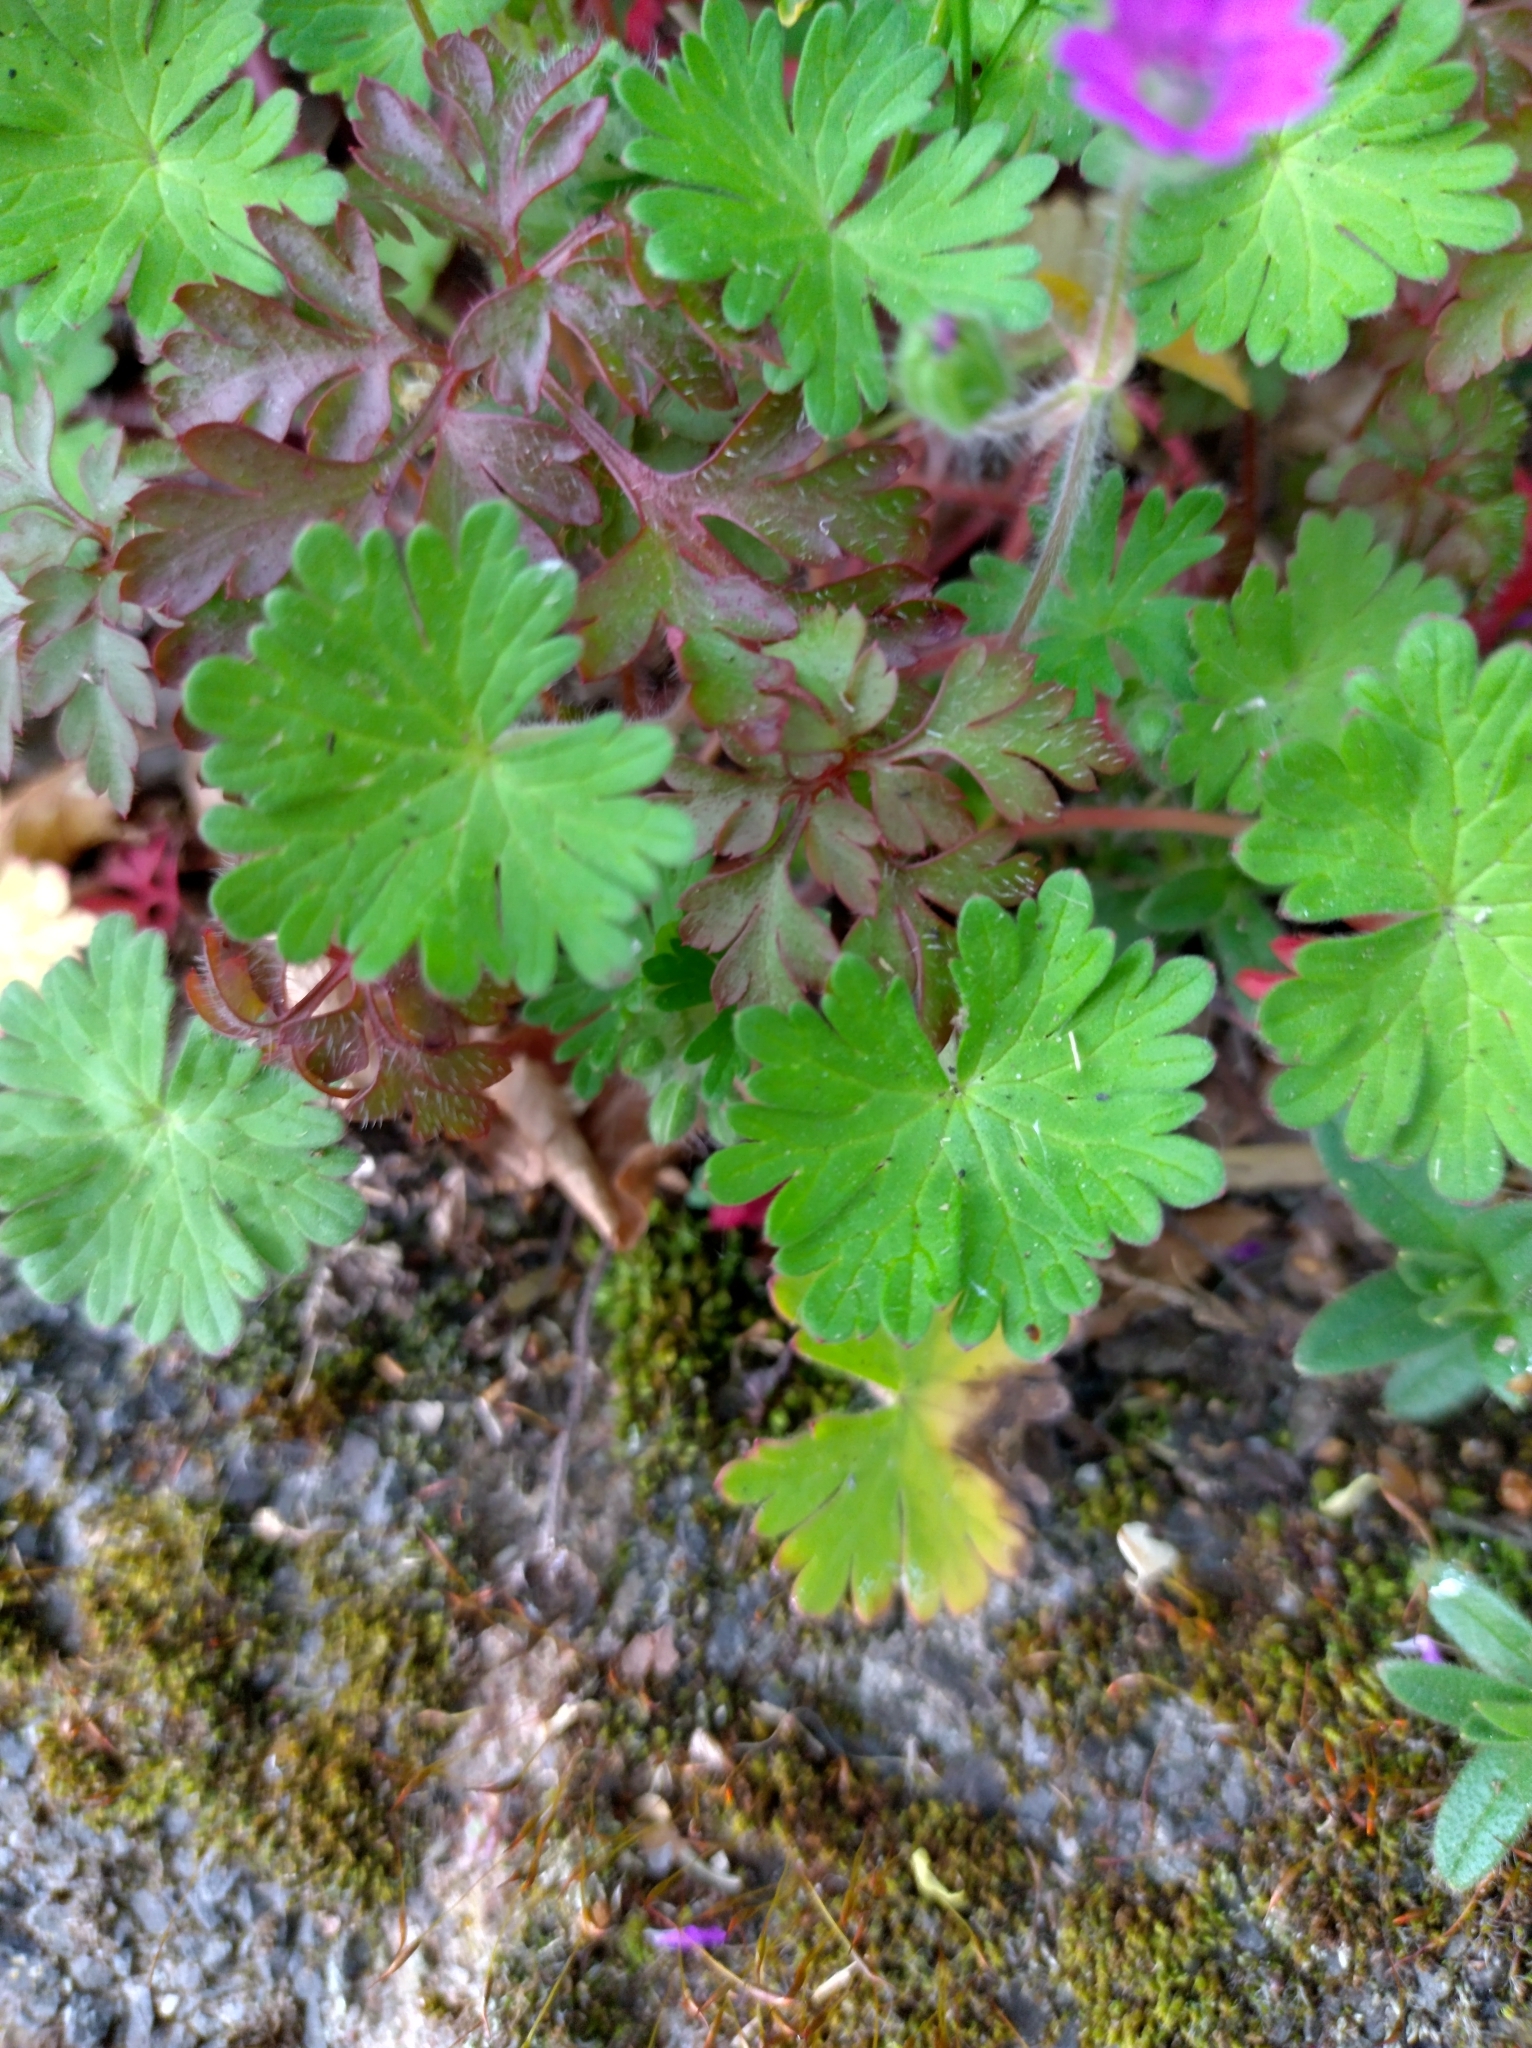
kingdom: Plantae
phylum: Tracheophyta
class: Magnoliopsida
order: Geraniales
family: Geraniaceae
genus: Geranium
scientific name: Geranium molle
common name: Dove's-foot crane's-bill
